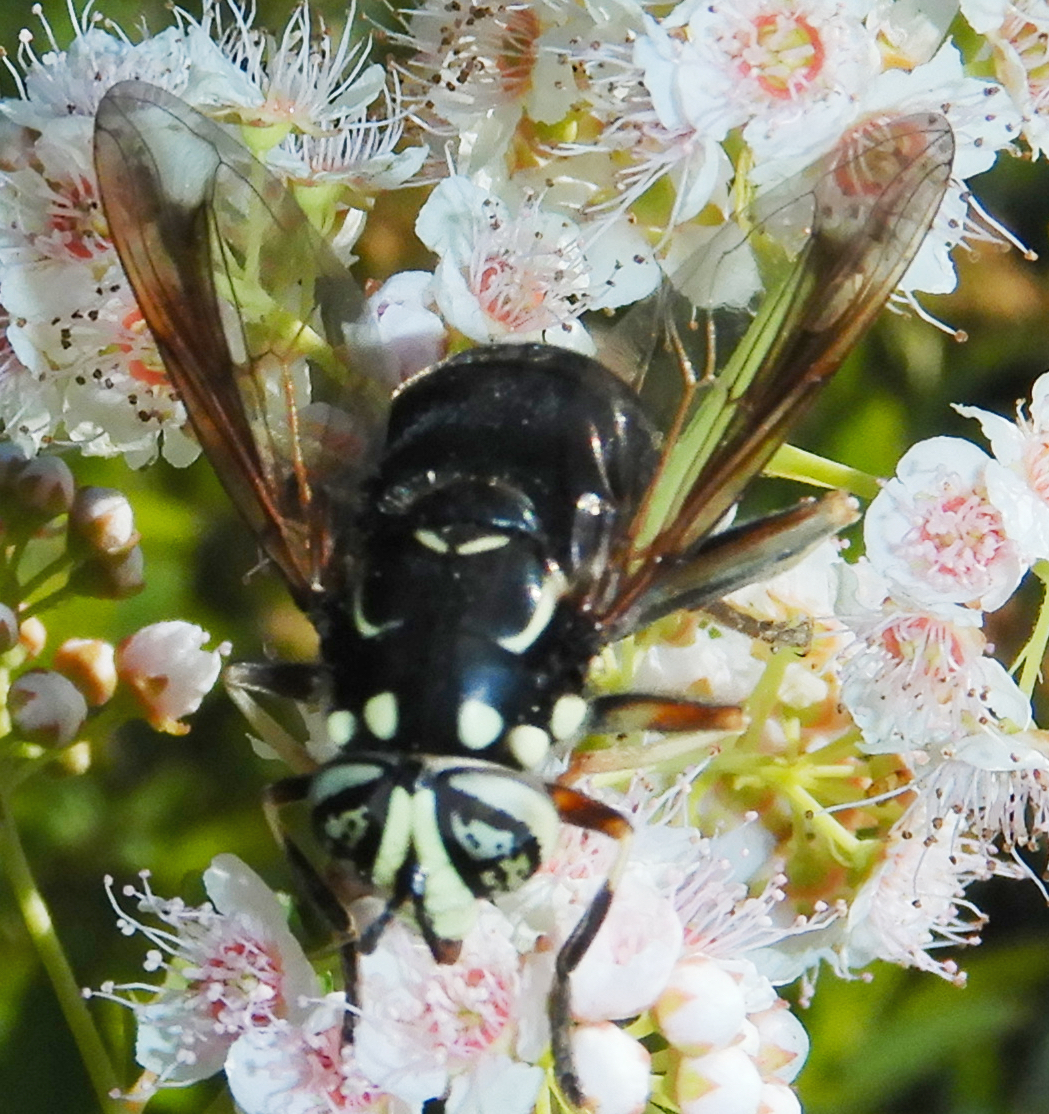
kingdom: Animalia
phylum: Arthropoda
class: Insecta
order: Diptera
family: Syrphidae
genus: Spilomyia
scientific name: Spilomyia fusca
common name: Bald-faced hornet fly
